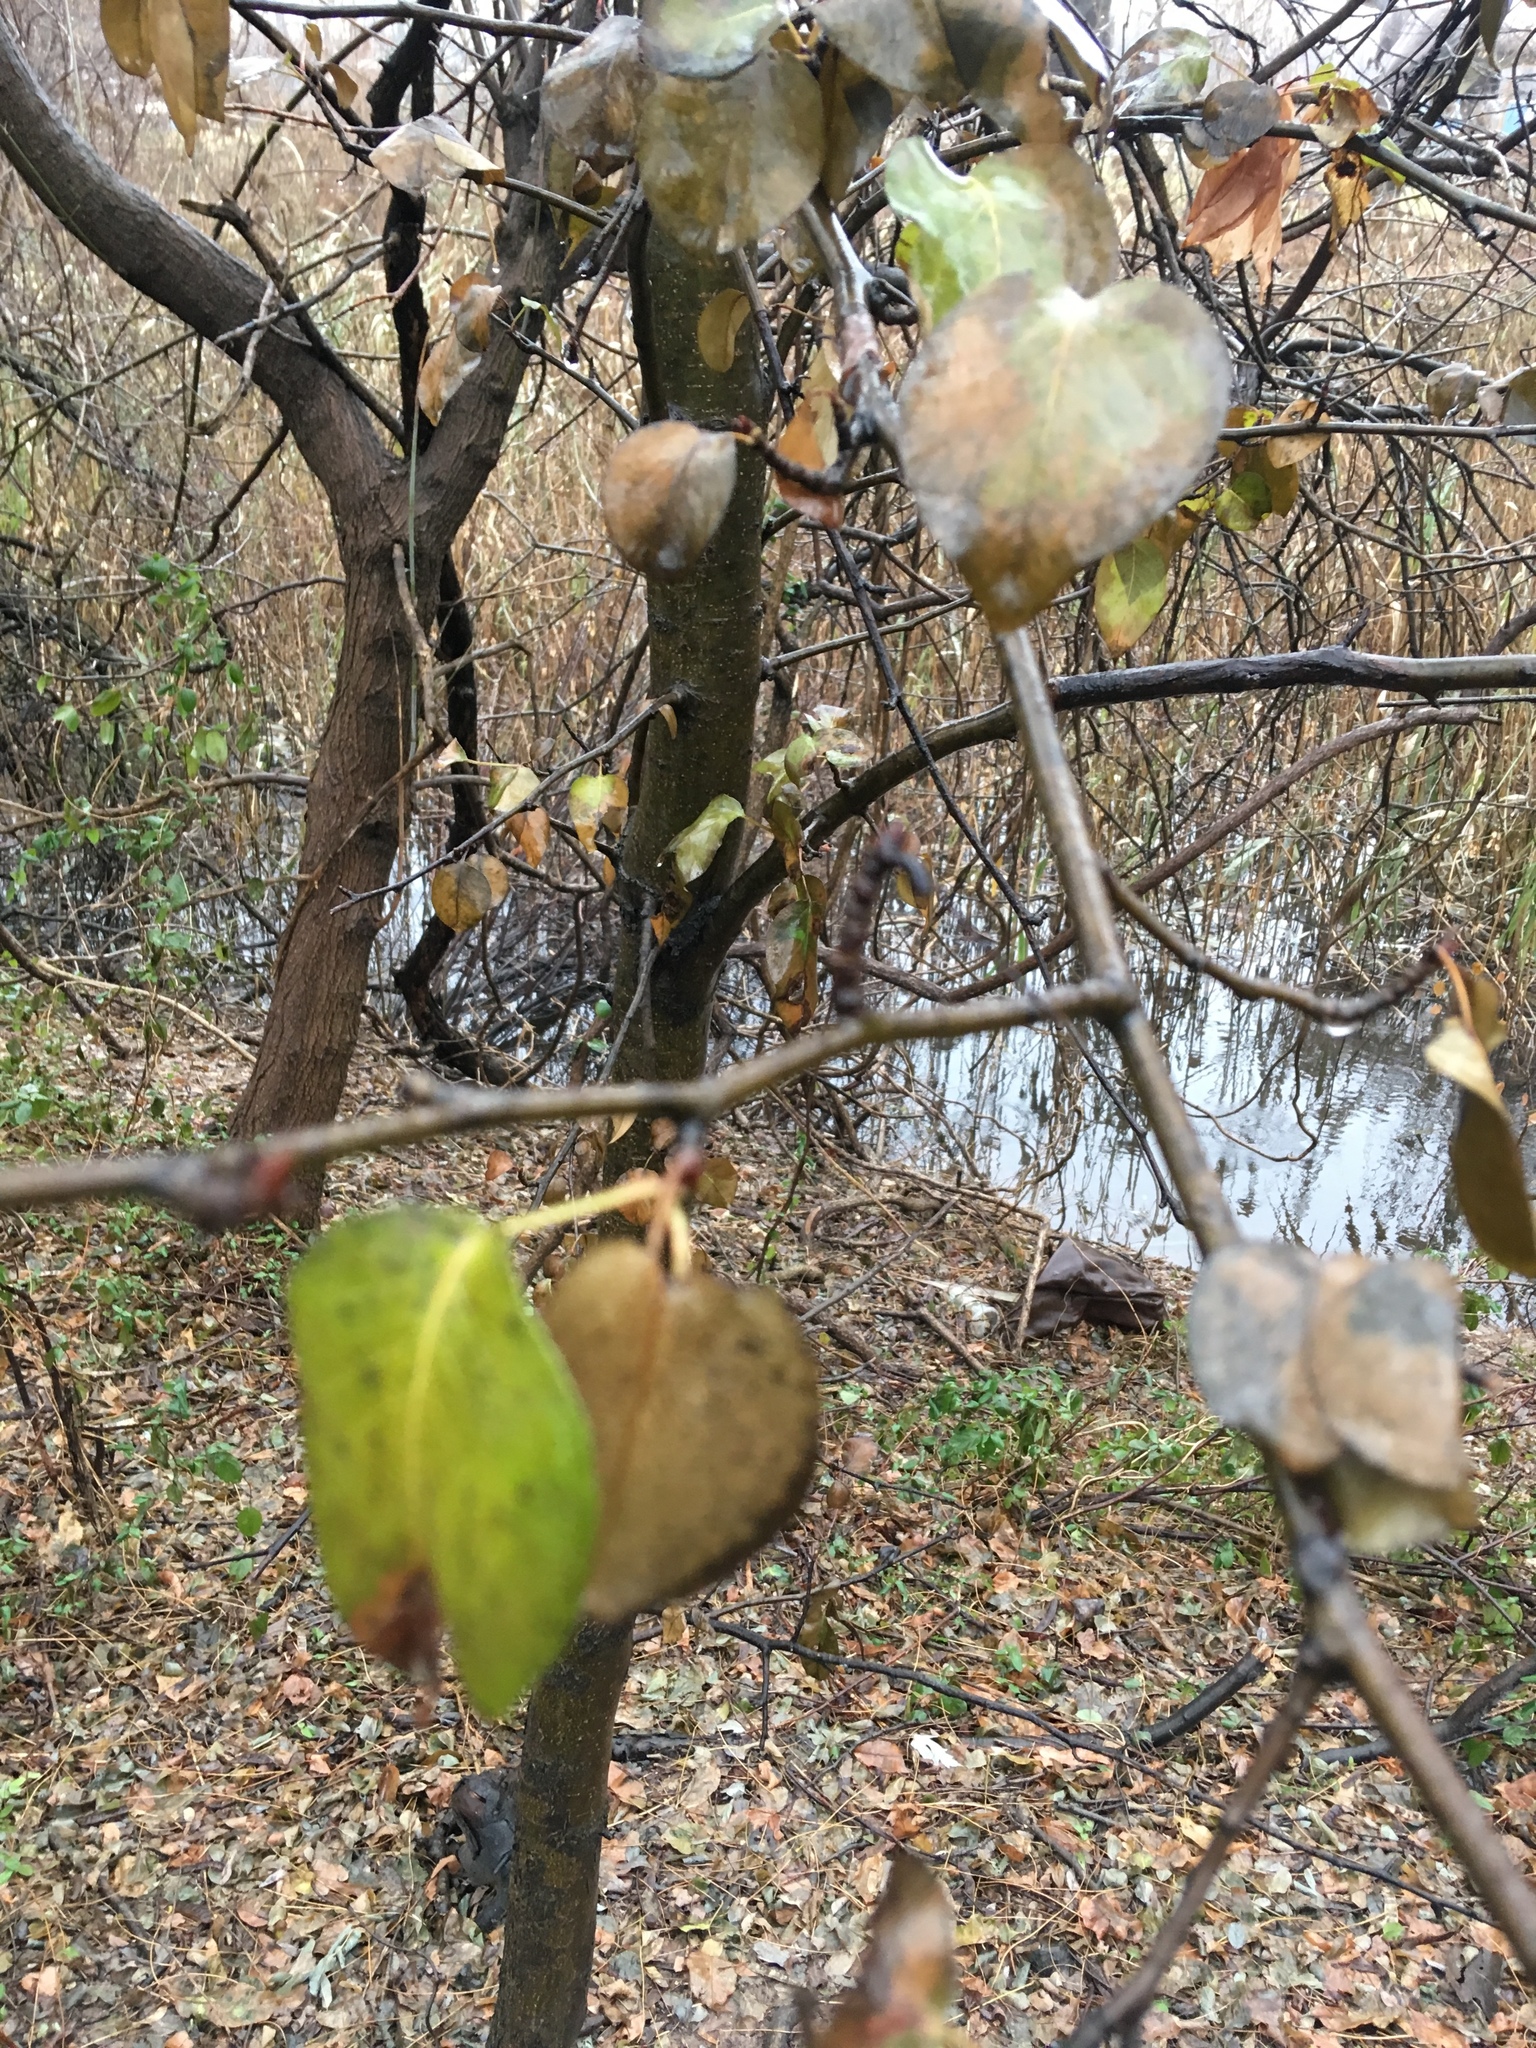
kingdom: Plantae
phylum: Tracheophyta
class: Magnoliopsida
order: Rosales
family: Rosaceae
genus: Pyrus
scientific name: Pyrus calleryana
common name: Callery pear
